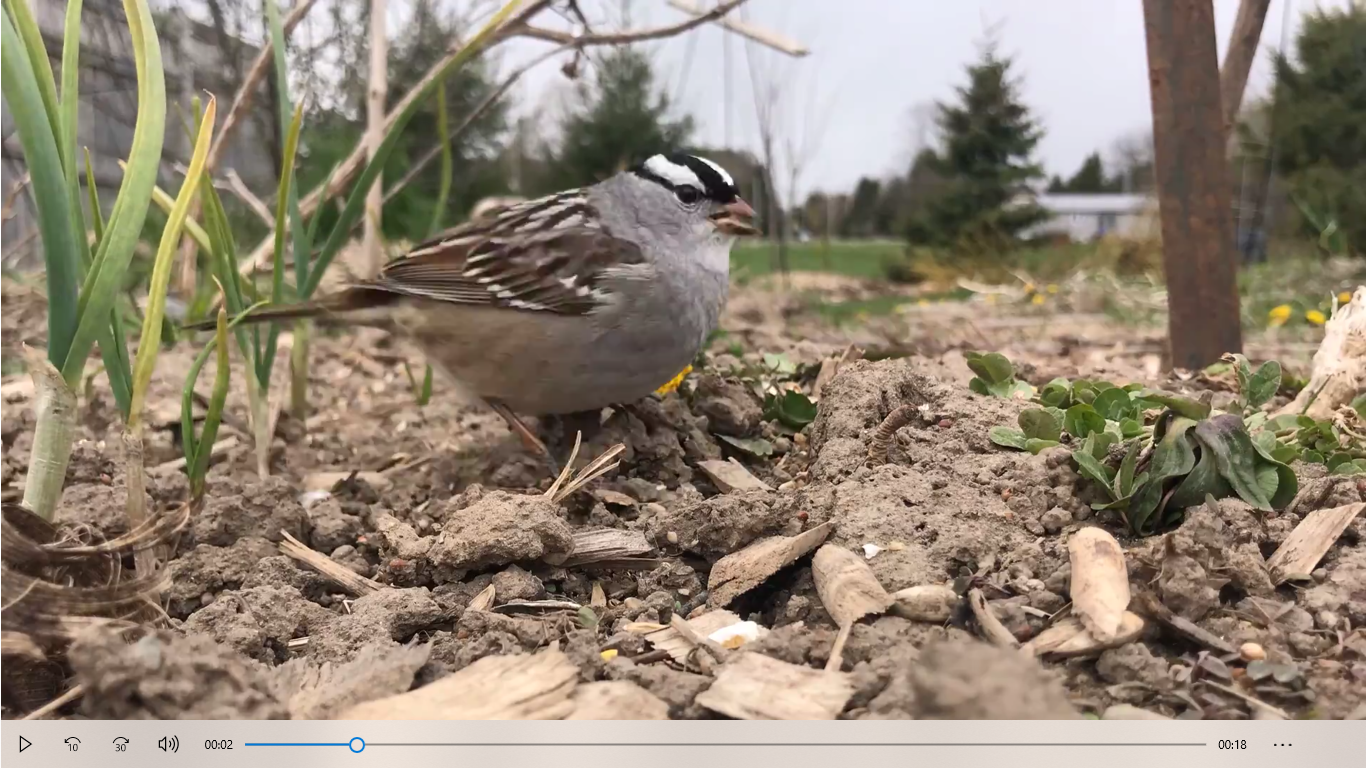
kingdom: Animalia
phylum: Chordata
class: Aves
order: Passeriformes
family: Passerellidae
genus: Zonotrichia
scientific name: Zonotrichia leucophrys
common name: White-crowned sparrow
